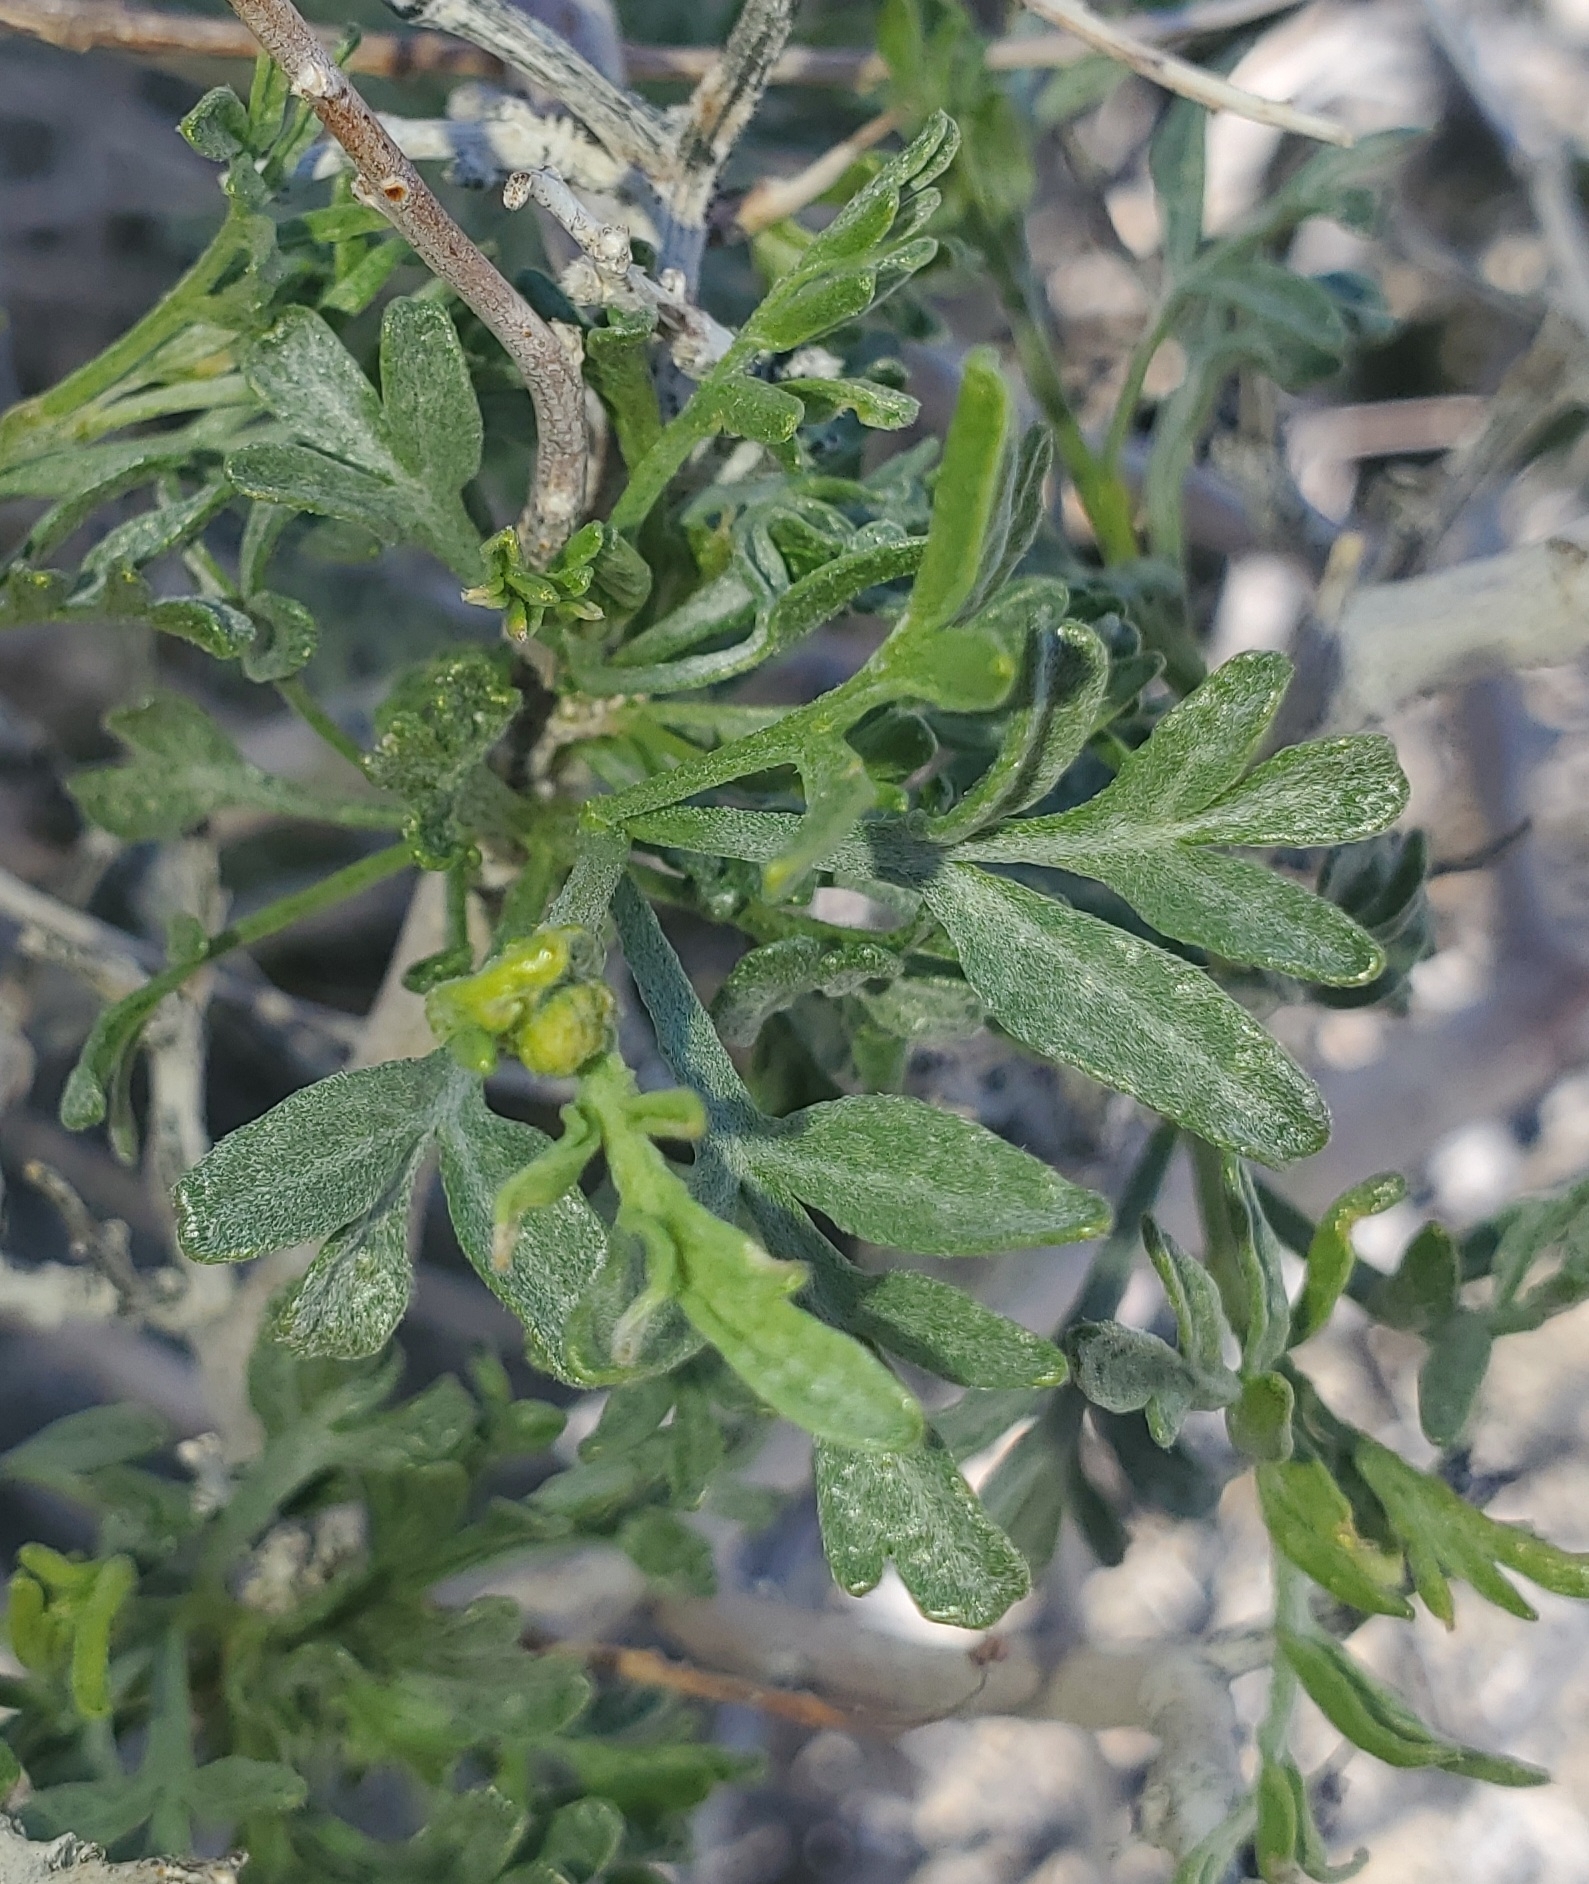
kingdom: Plantae
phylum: Tracheophyta
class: Magnoliopsida
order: Fabales
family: Fabaceae
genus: Psorothamnus
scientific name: Psorothamnus arborescens
